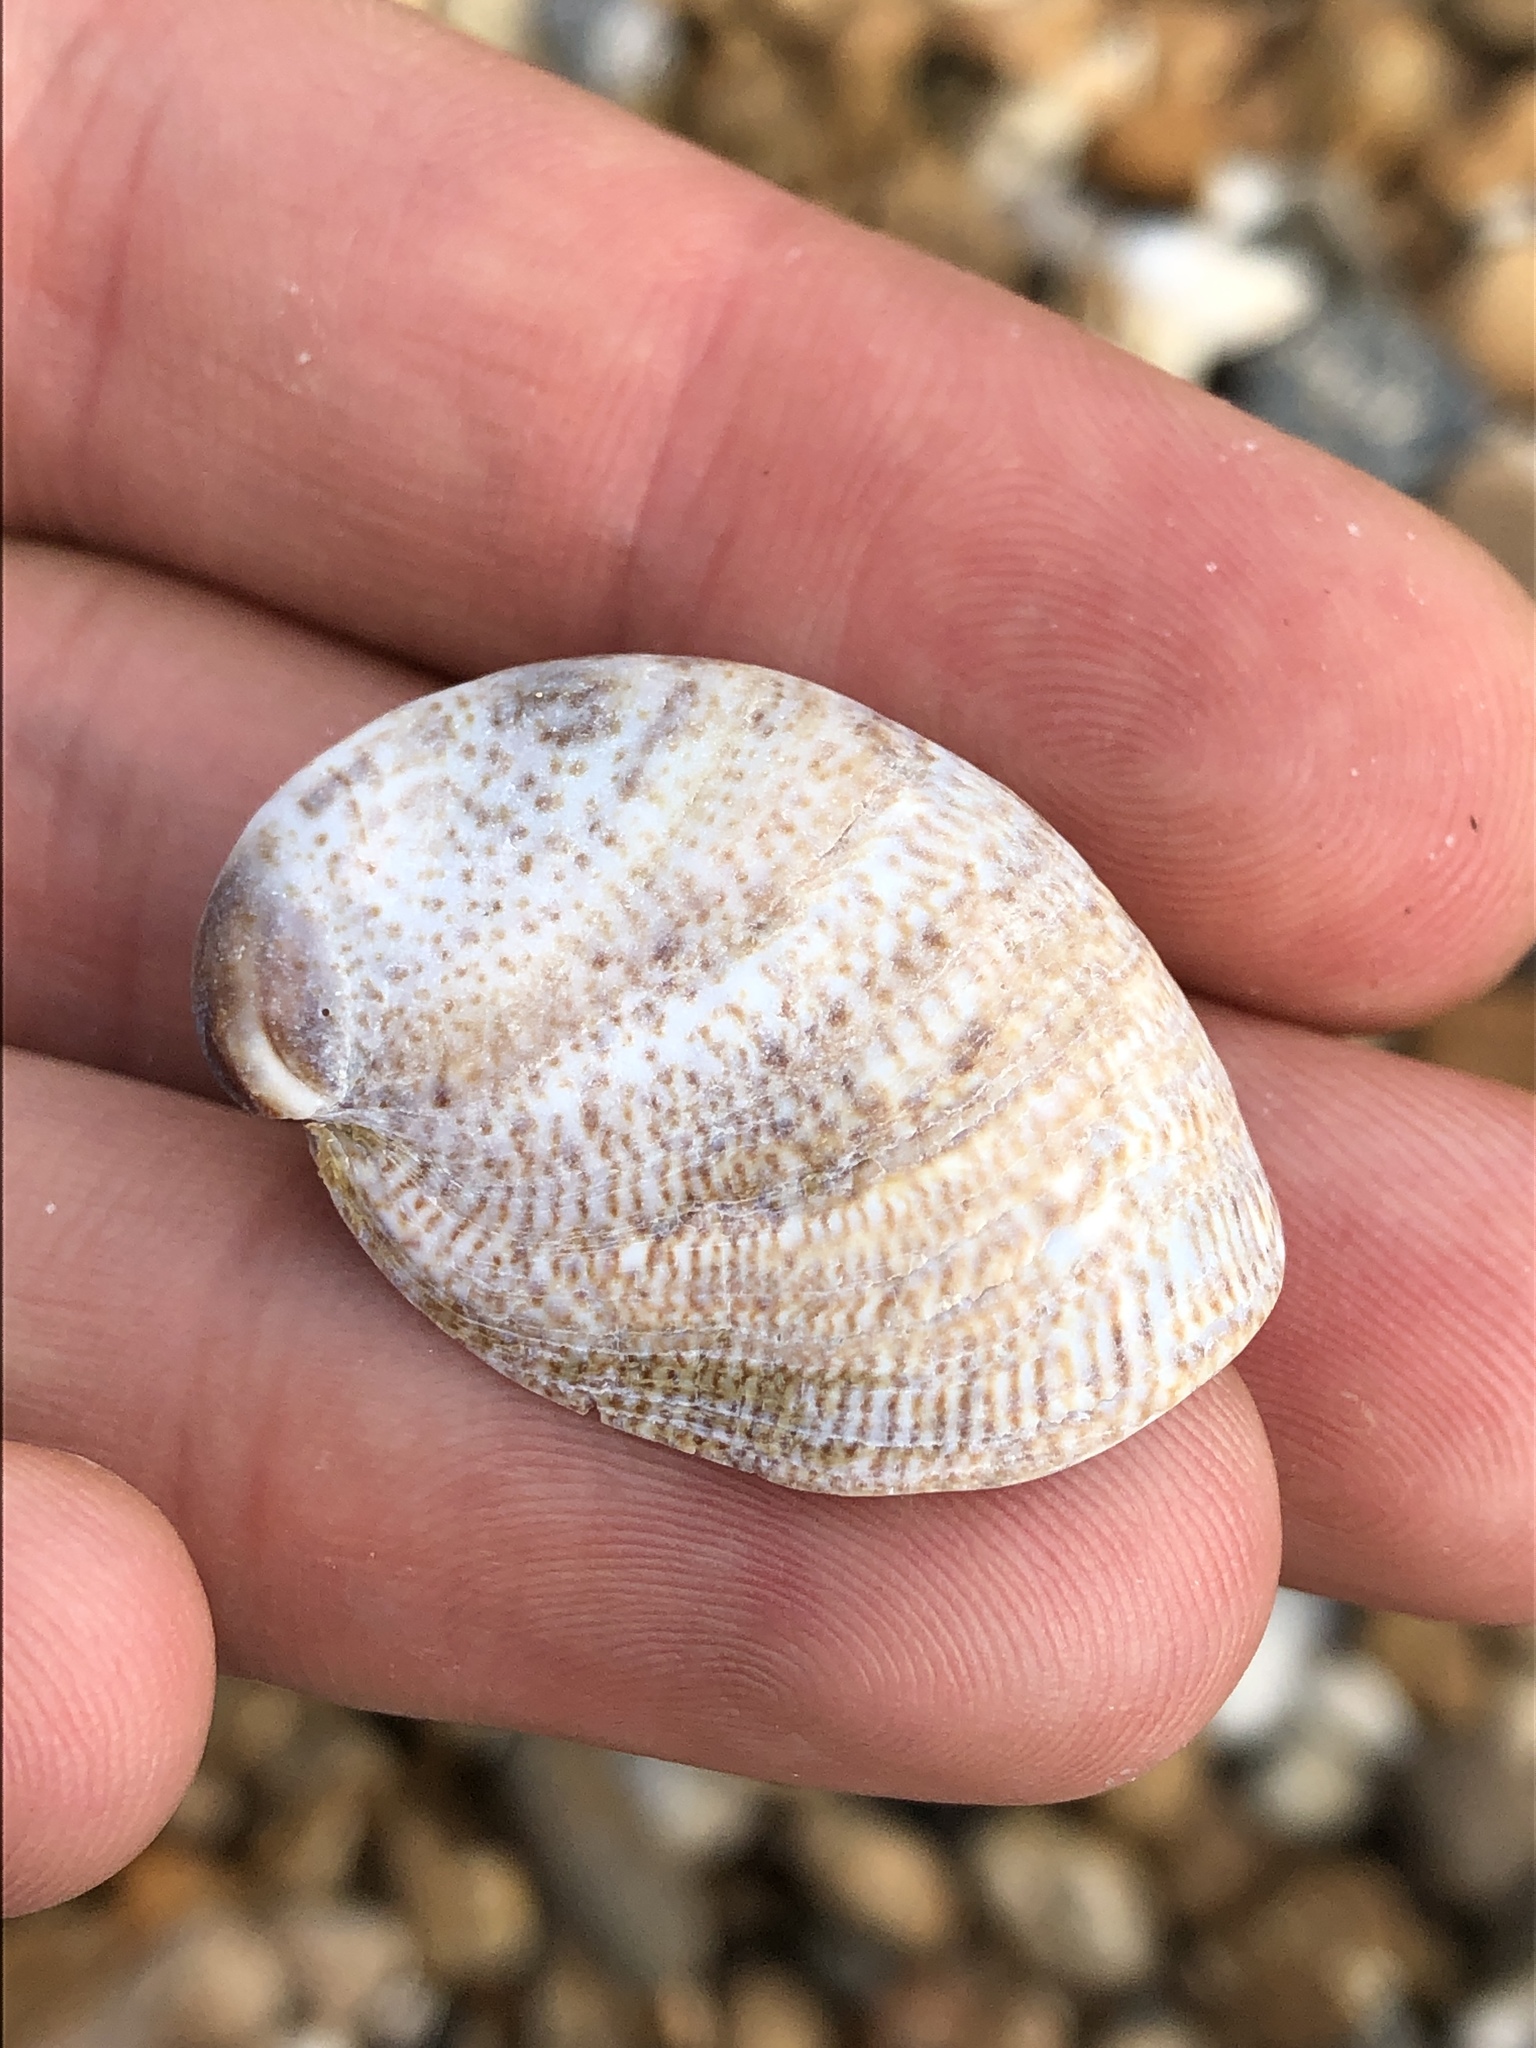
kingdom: Animalia
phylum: Mollusca
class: Gastropoda
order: Littorinimorpha
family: Calyptraeidae
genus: Crepidula
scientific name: Crepidula fornicata
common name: Slipper limpet
